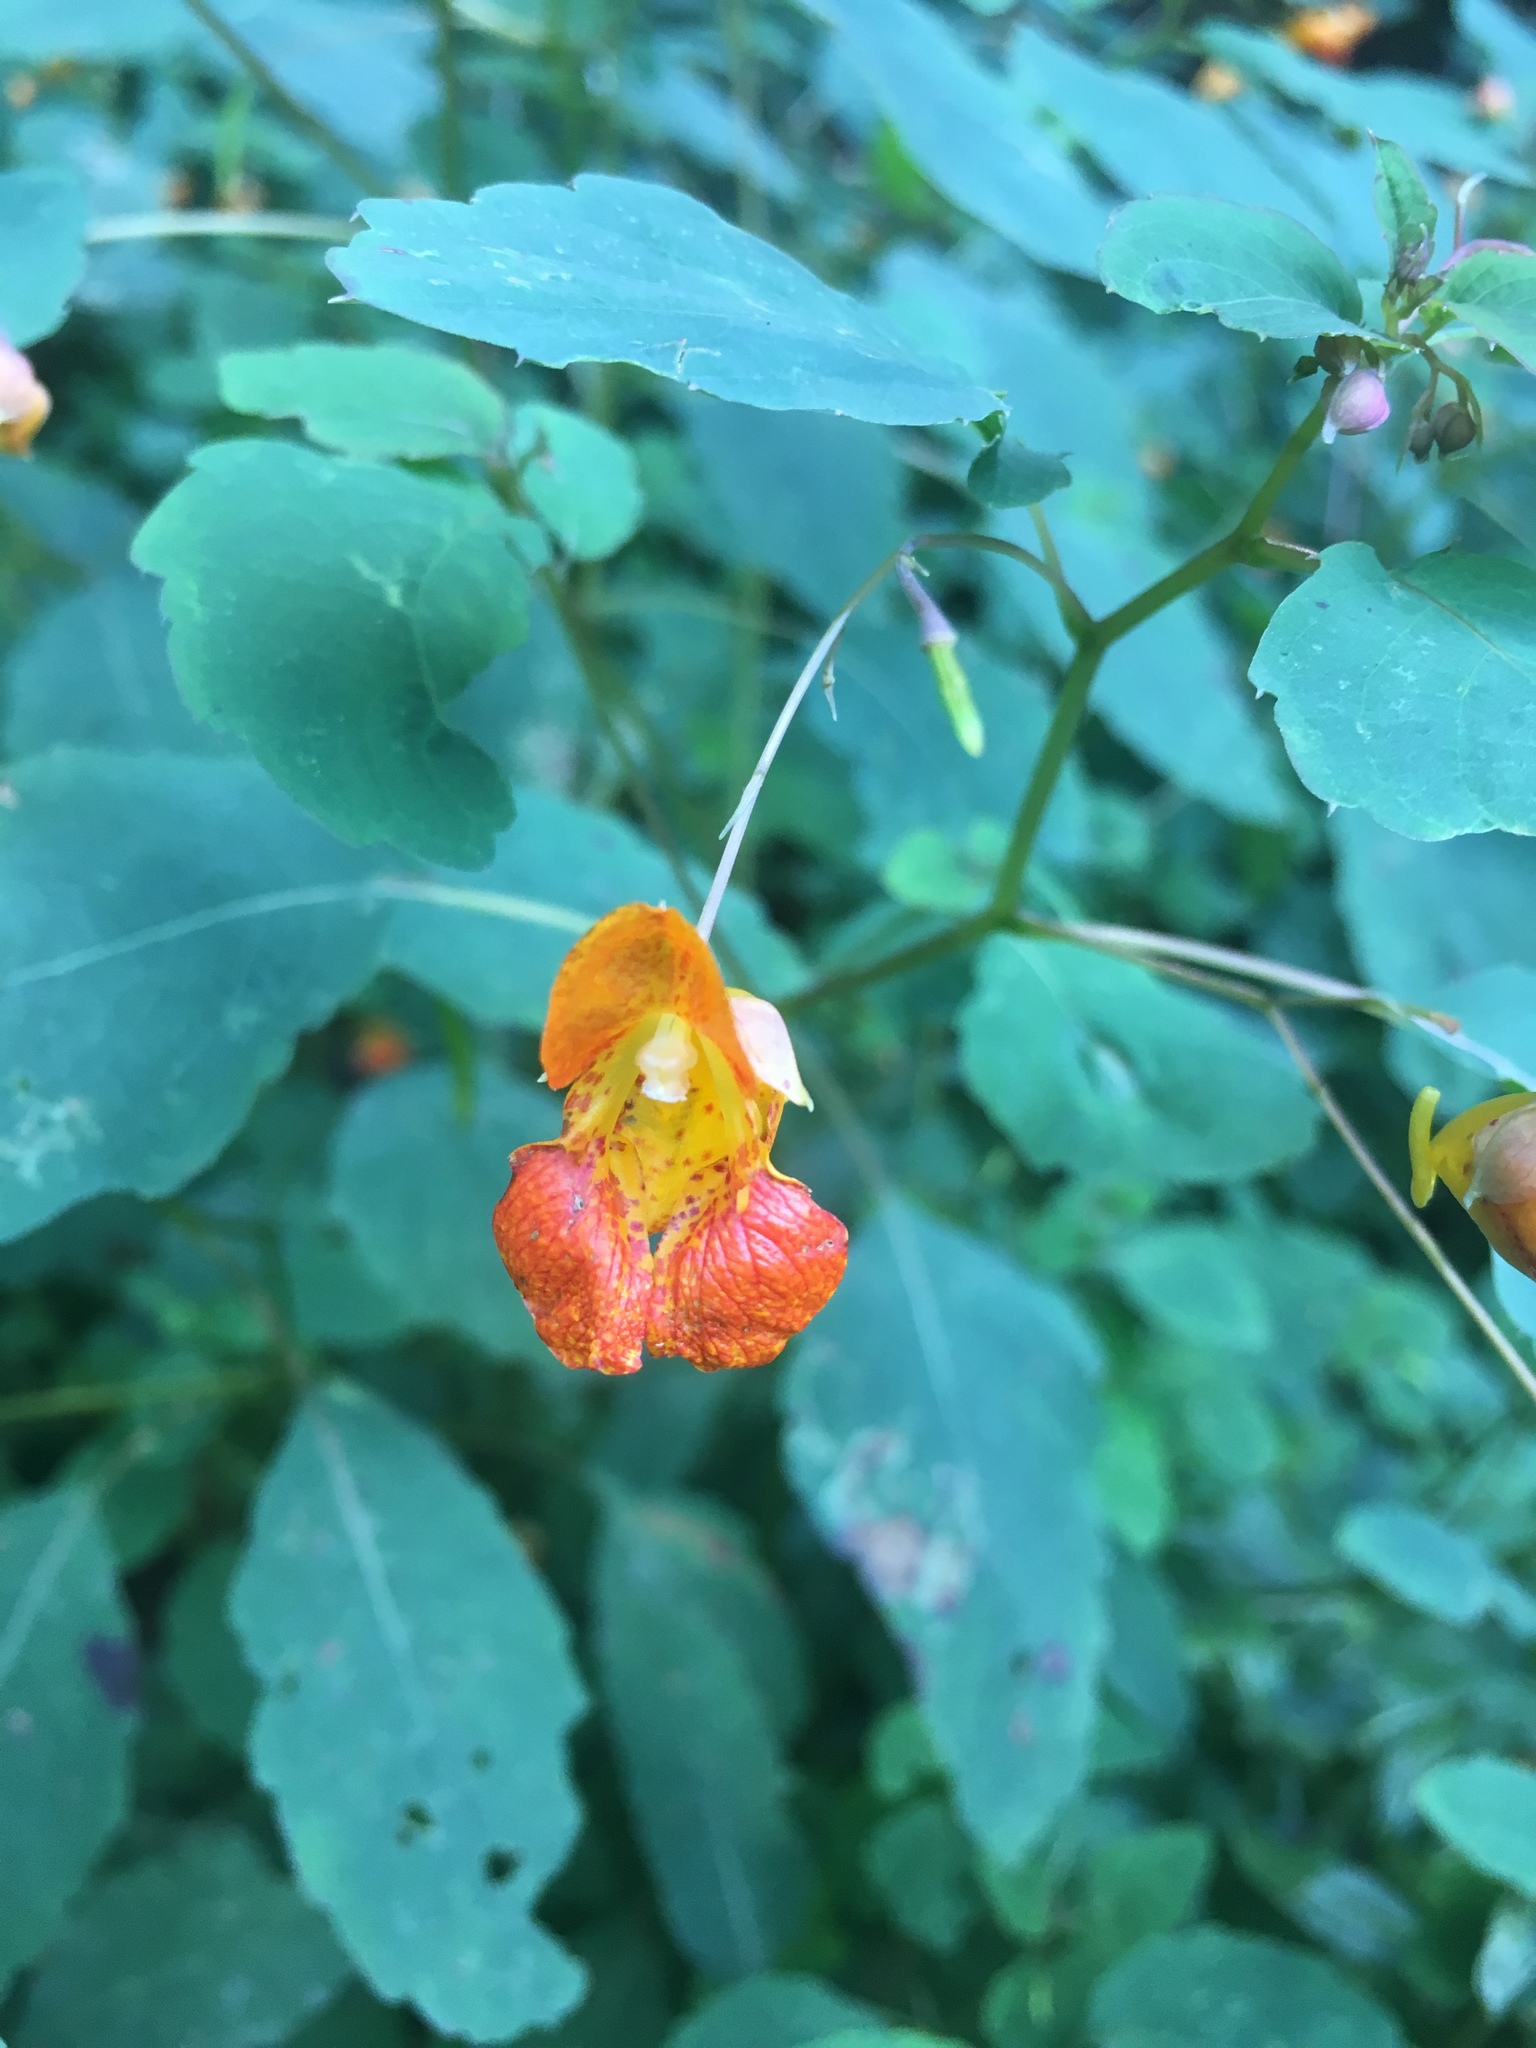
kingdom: Plantae
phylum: Tracheophyta
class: Magnoliopsida
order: Ericales
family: Balsaminaceae
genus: Impatiens
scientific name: Impatiens capensis
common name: Orange balsam
